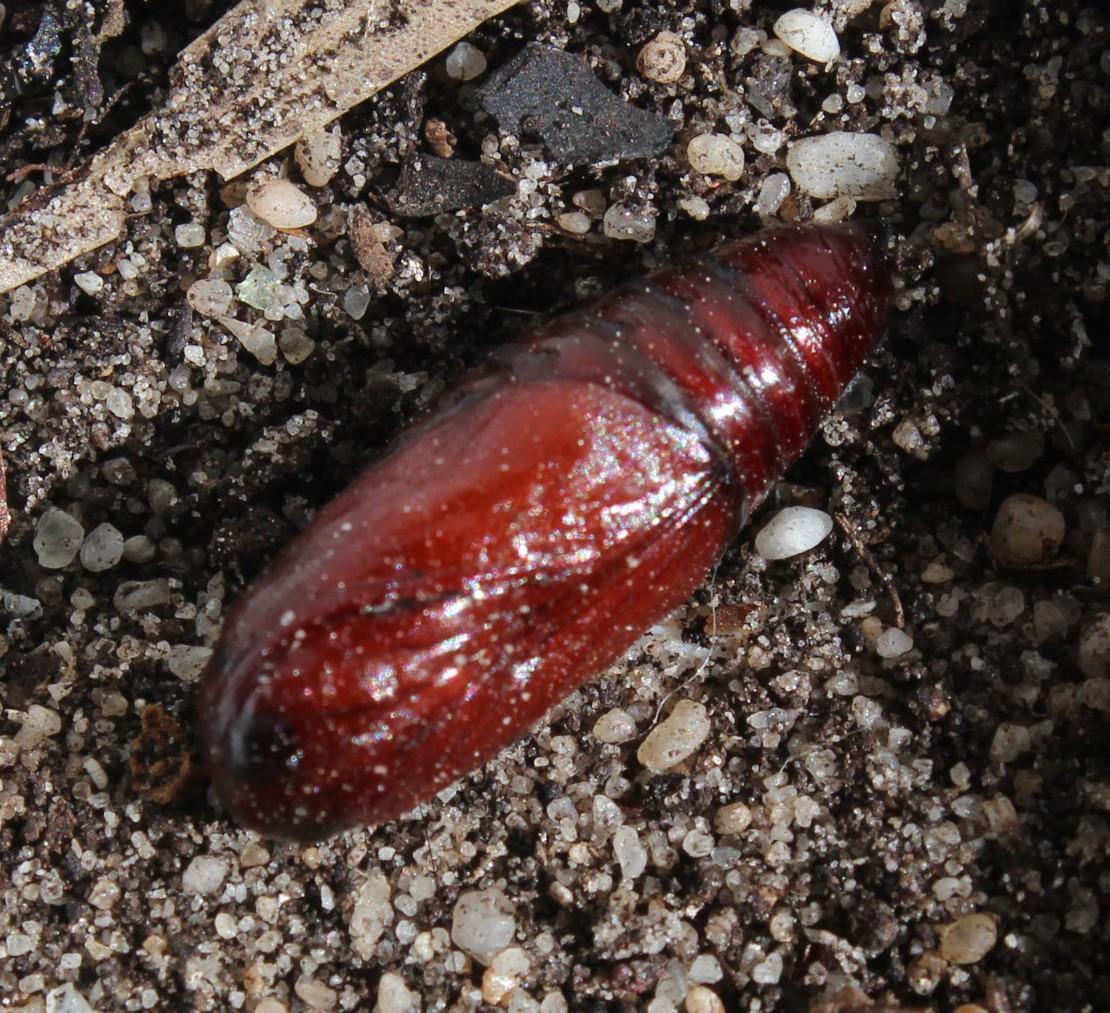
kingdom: Animalia
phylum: Arthropoda
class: Insecta
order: Lepidoptera
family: Noctuidae
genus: Compsotata
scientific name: Compsotata elegantissima
